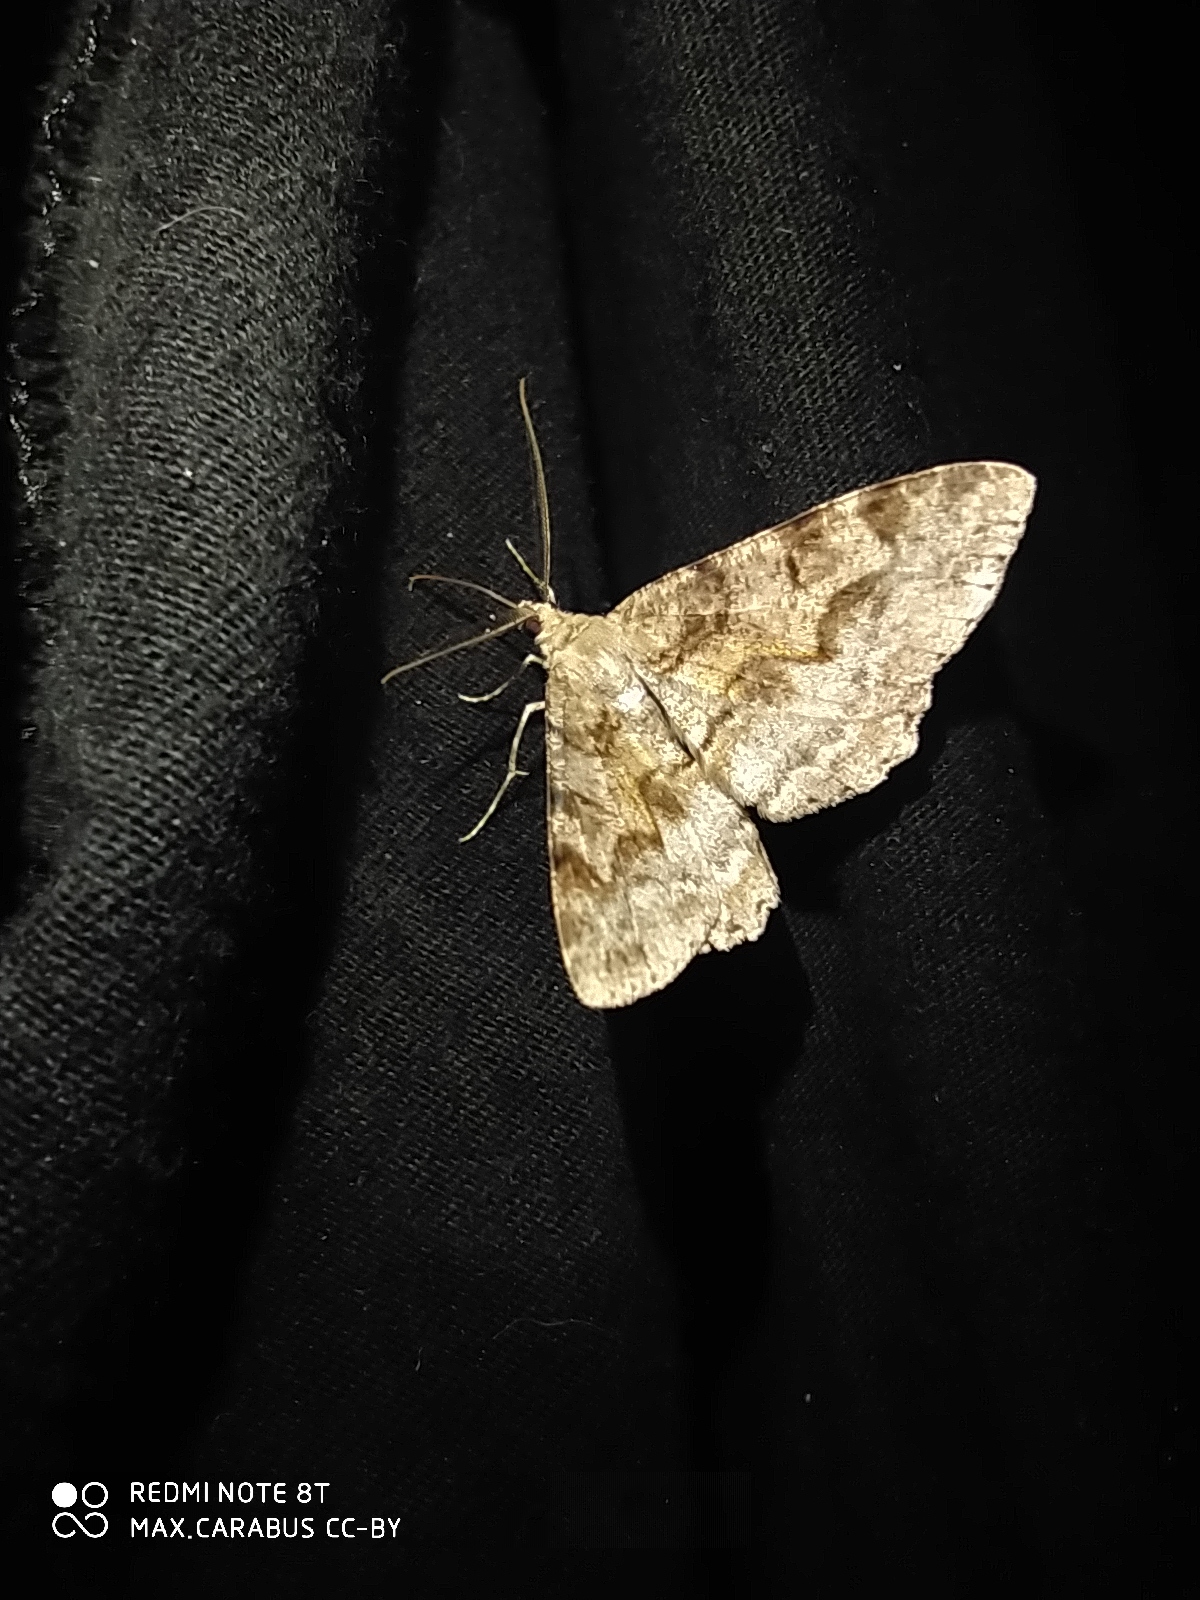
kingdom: Animalia
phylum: Arthropoda
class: Insecta
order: Lepidoptera
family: Geometridae
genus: Alcis
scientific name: Alcis repandata
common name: Mottled beauty
